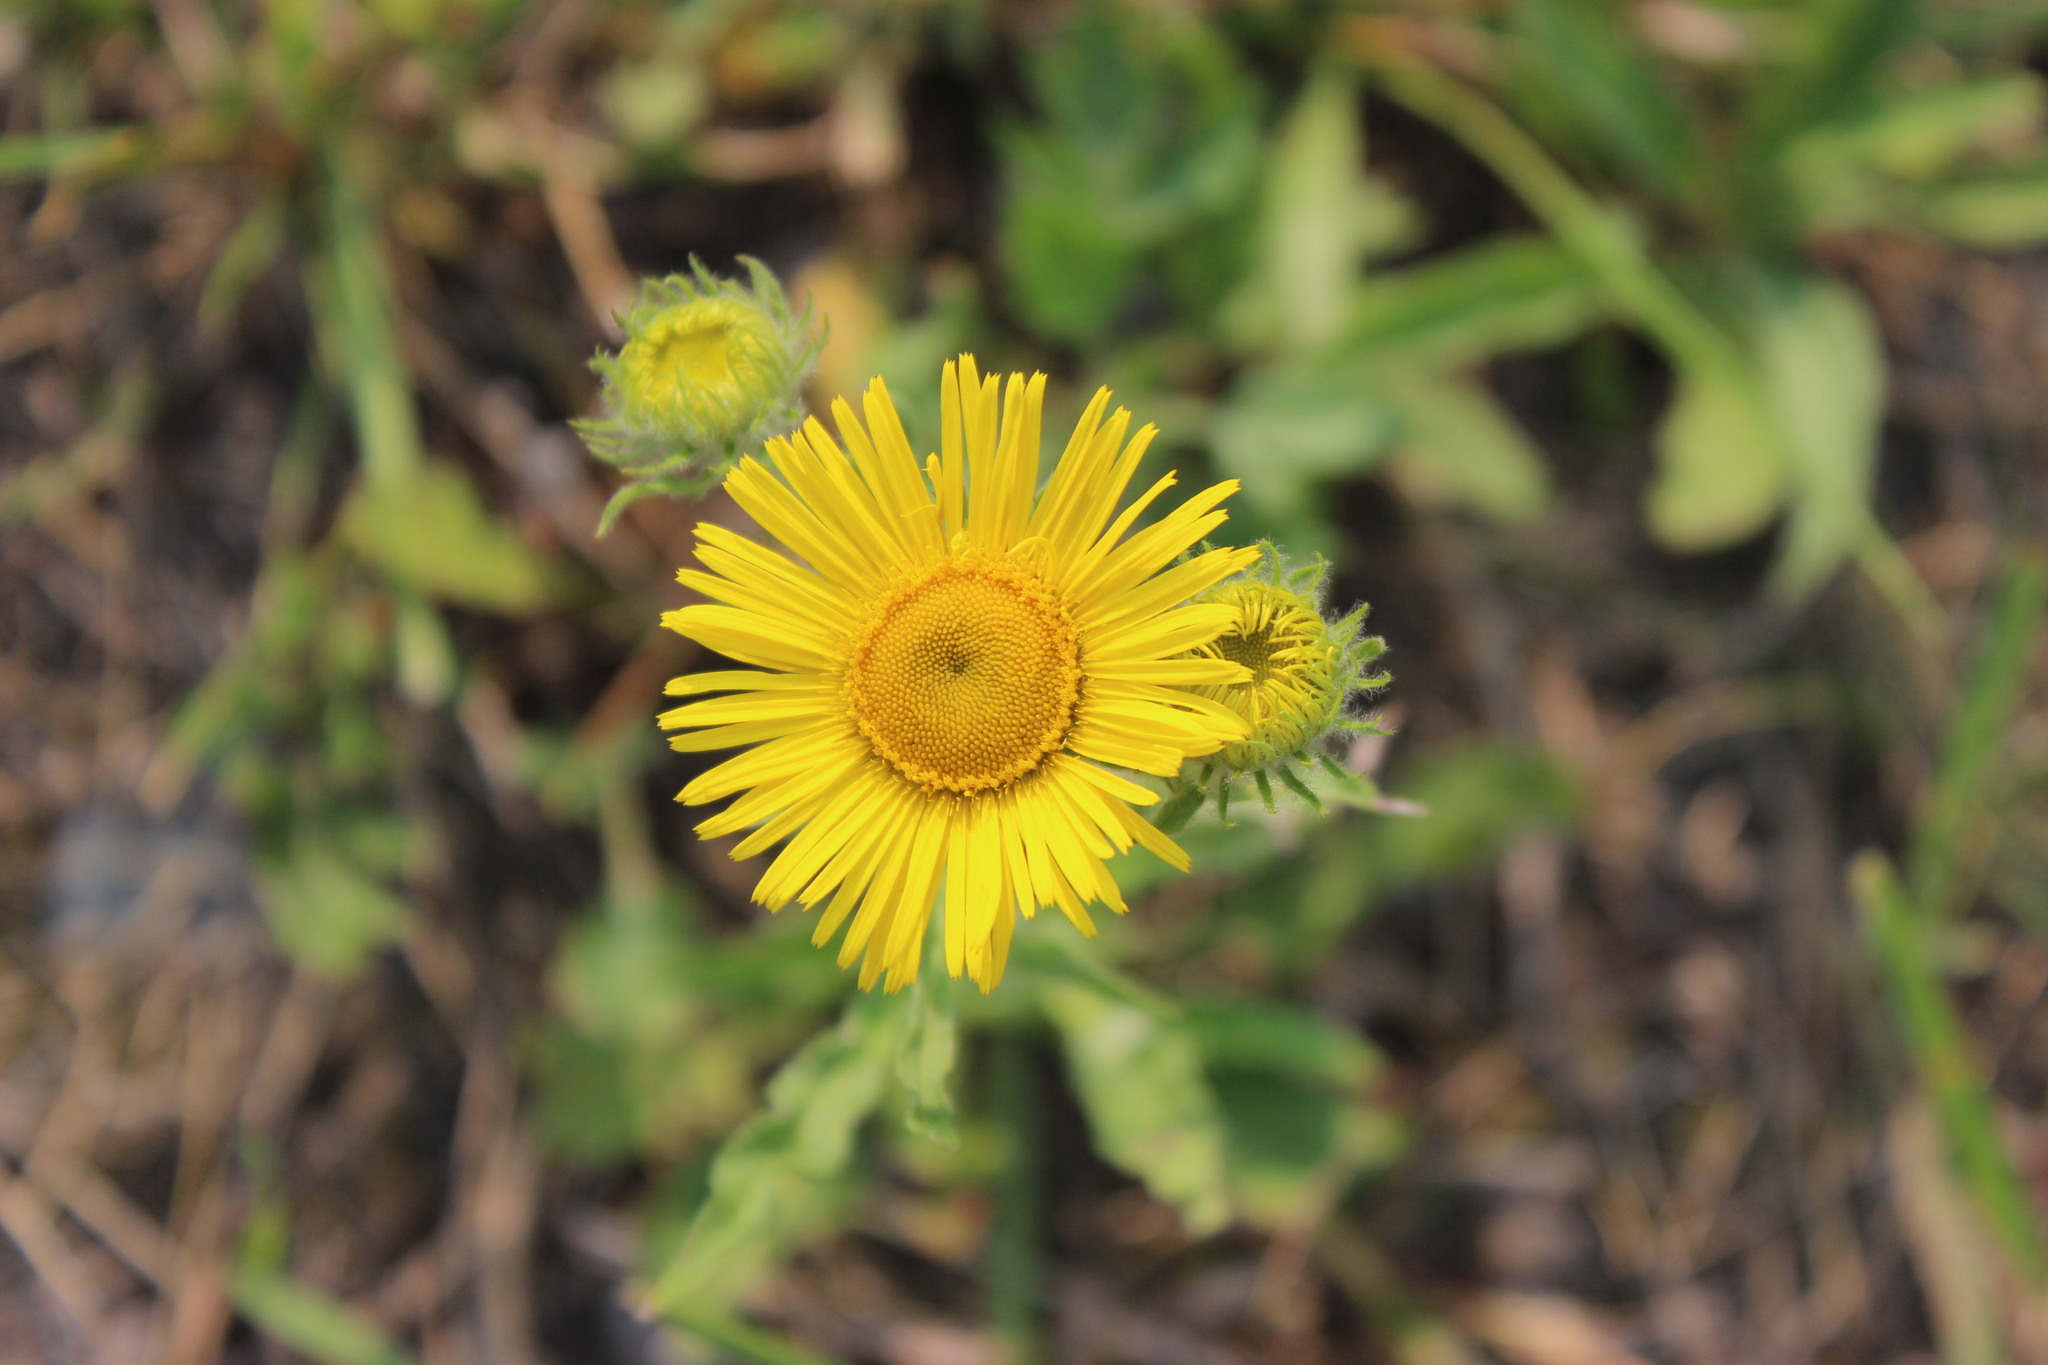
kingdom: Plantae
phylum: Tracheophyta
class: Magnoliopsida
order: Asterales
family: Asteraceae
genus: Pentanema
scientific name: Pentanema britannicum
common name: British elecampane
